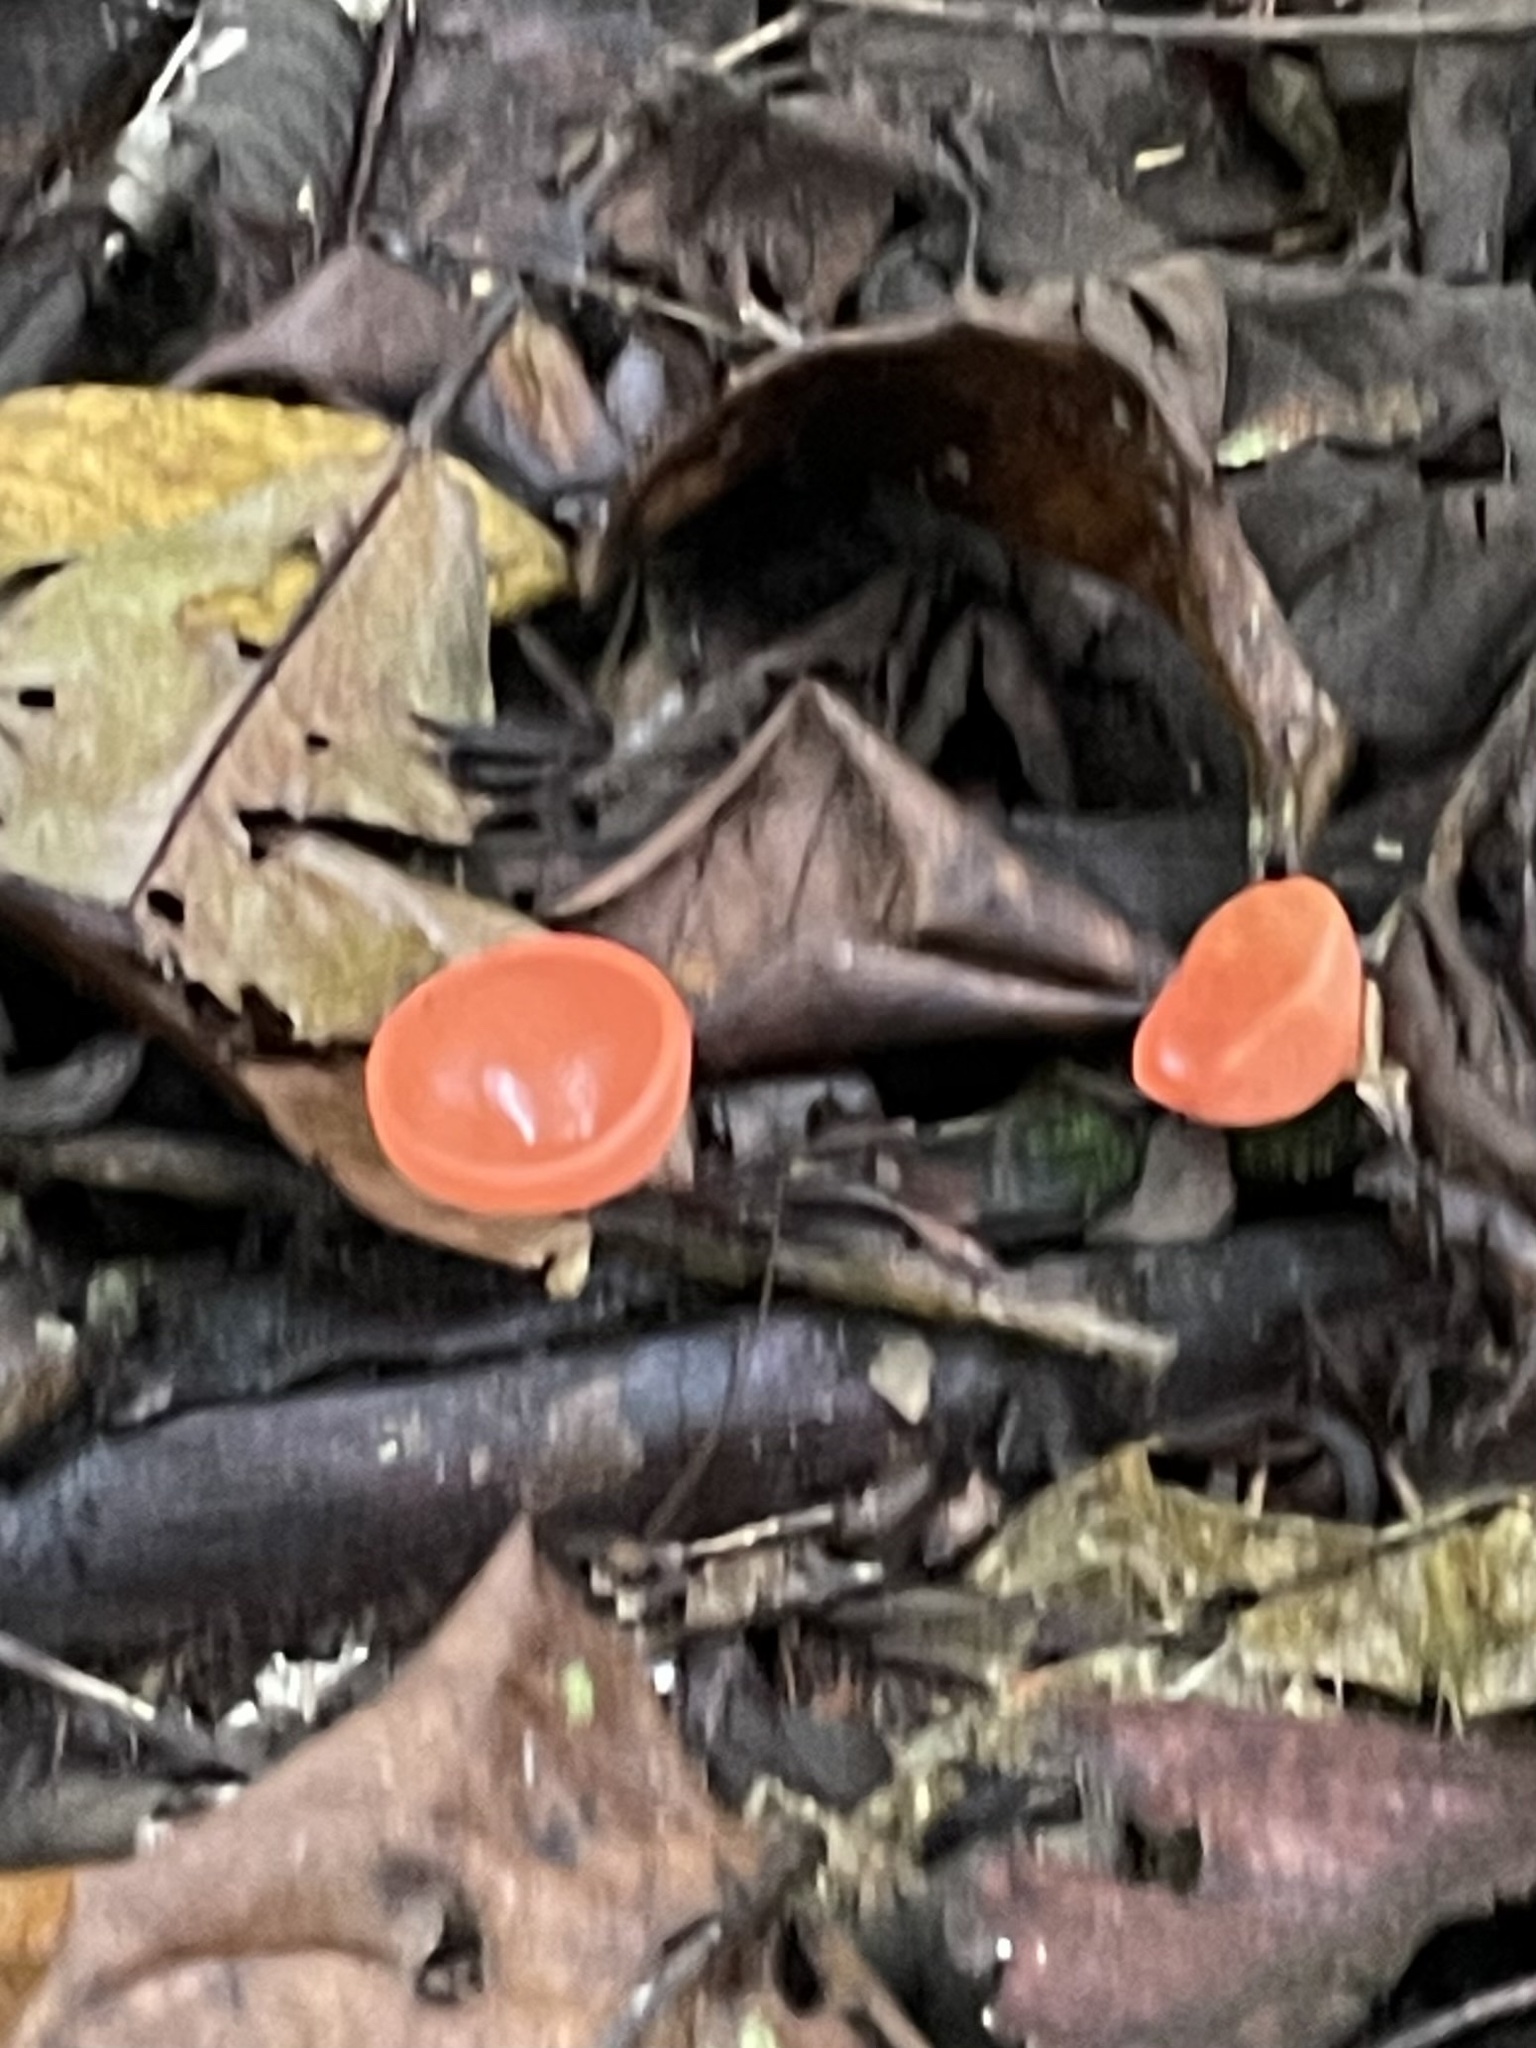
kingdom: Fungi
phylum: Ascomycota
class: Pezizomycetes
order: Pezizales
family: Sarcoscyphaceae
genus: Cookeina
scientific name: Cookeina speciosa
